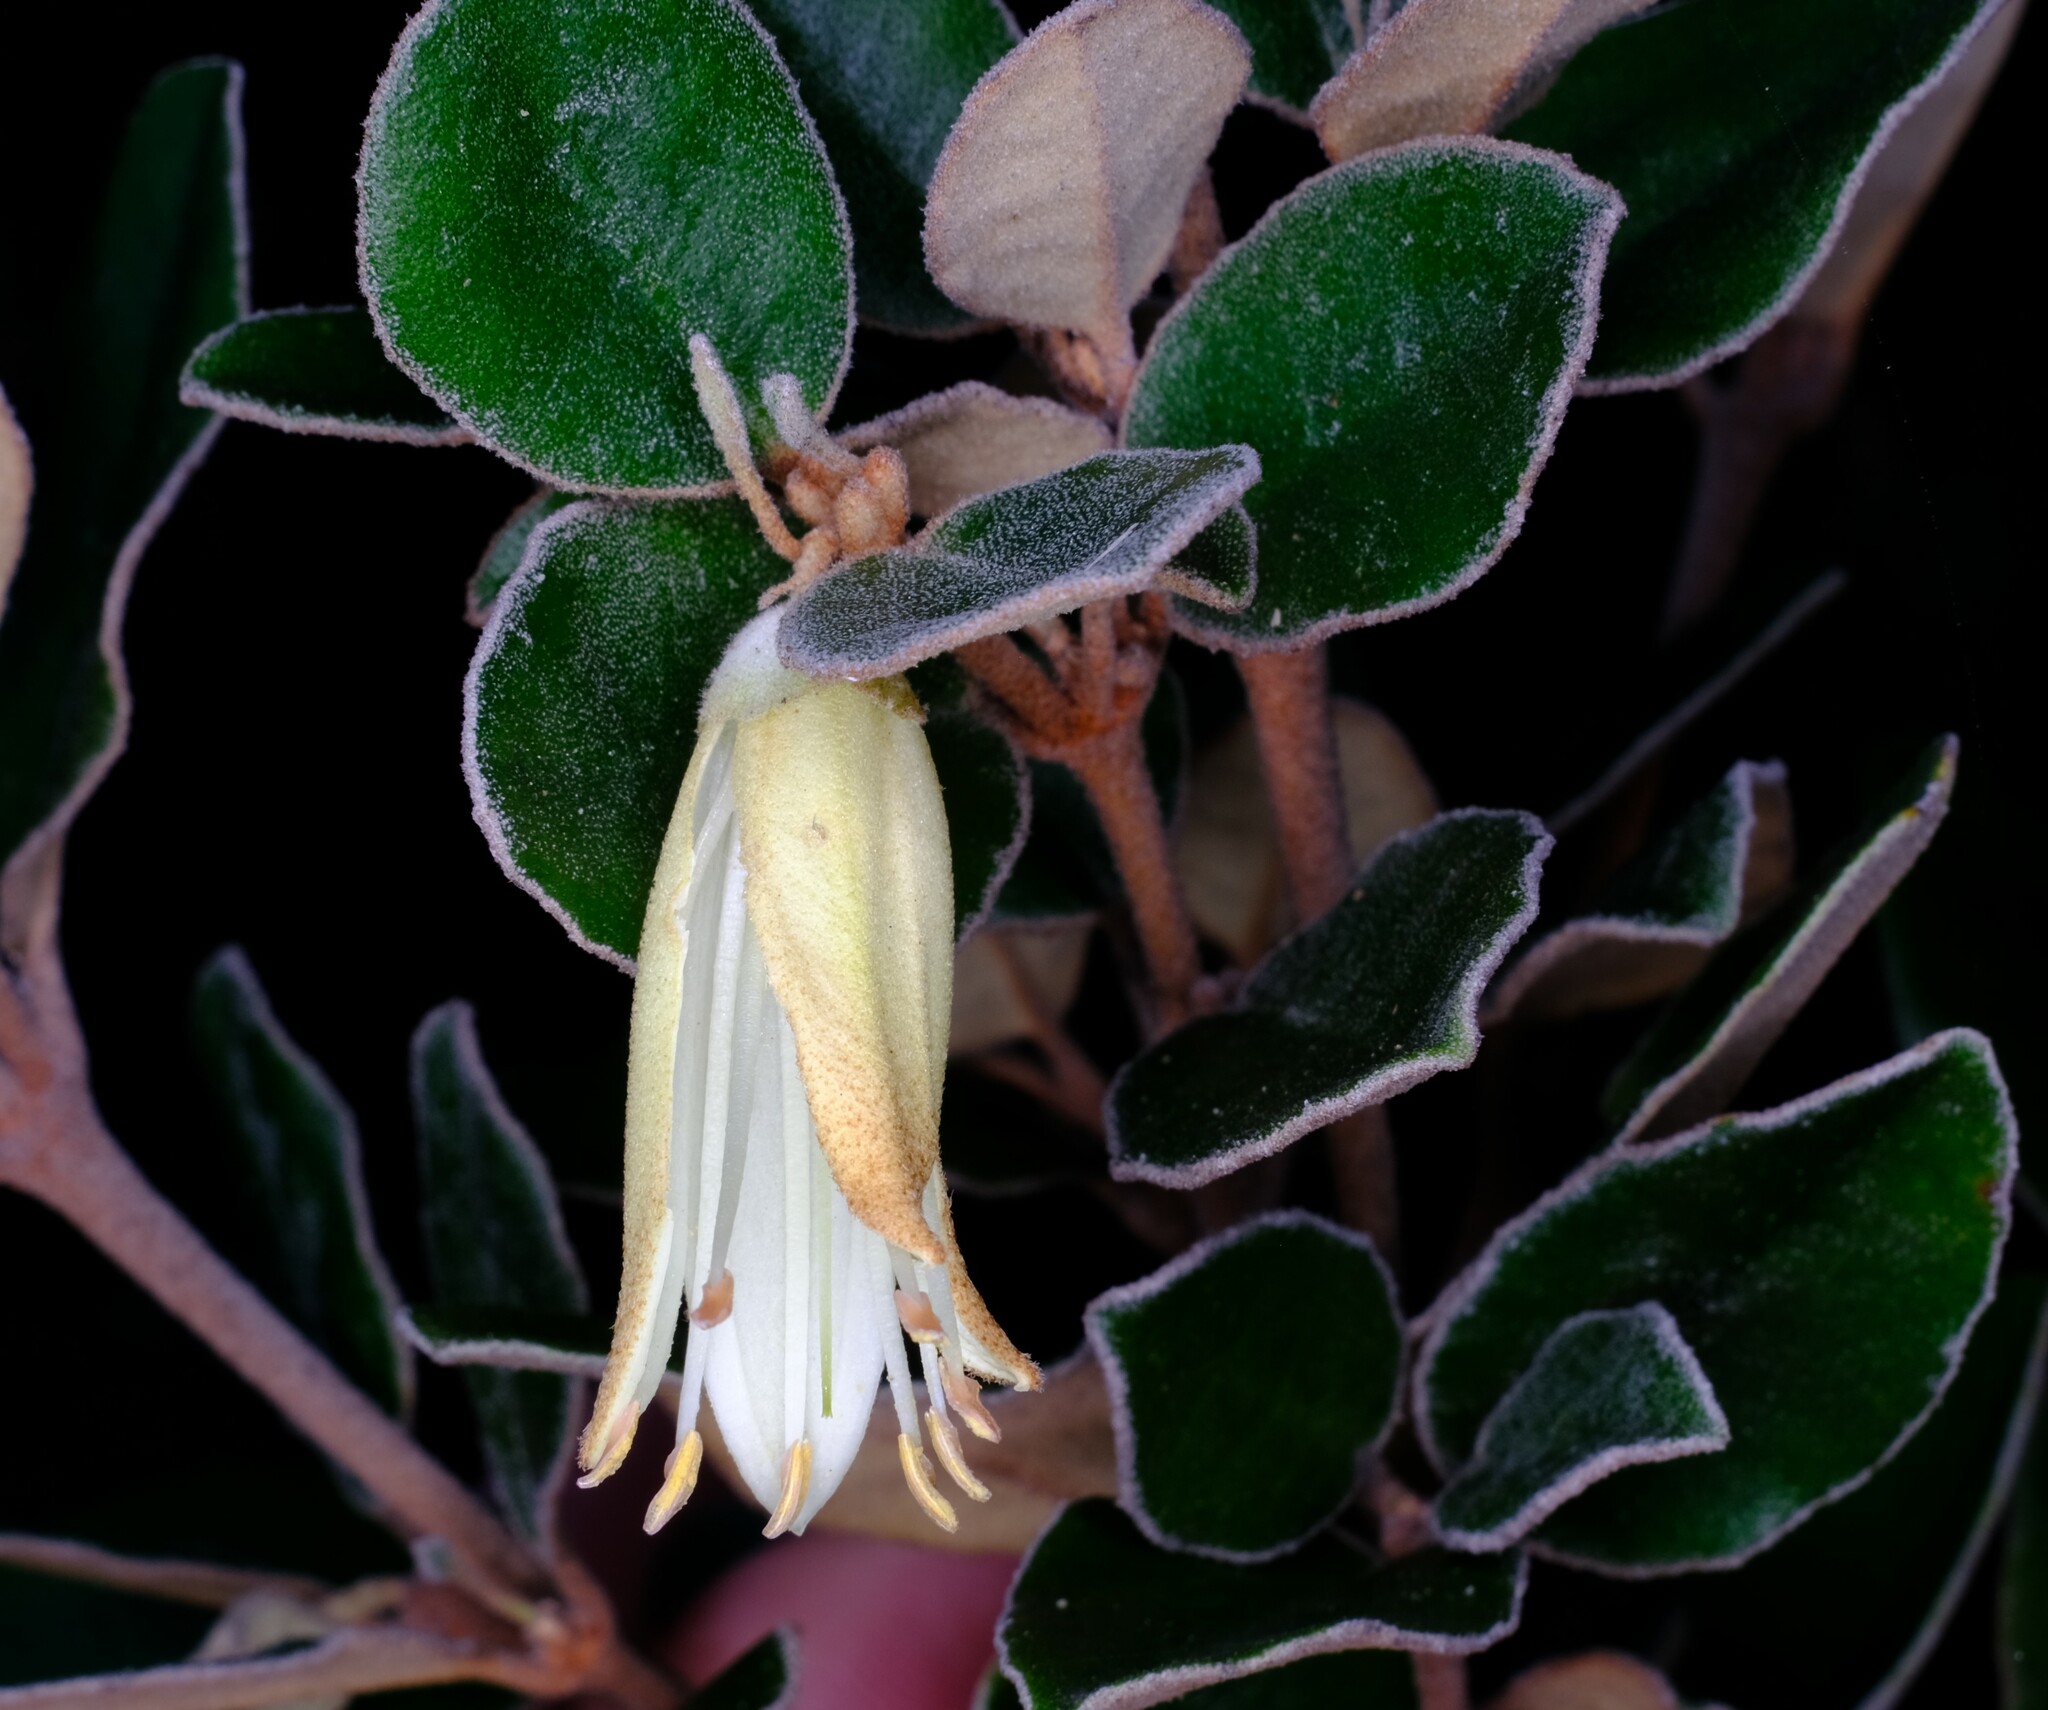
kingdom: Plantae
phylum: Tracheophyta
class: Magnoliopsida
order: Sapindales
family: Rutaceae
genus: Correa
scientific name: Correa backhouseana
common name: Tasmanian-fuchsia
